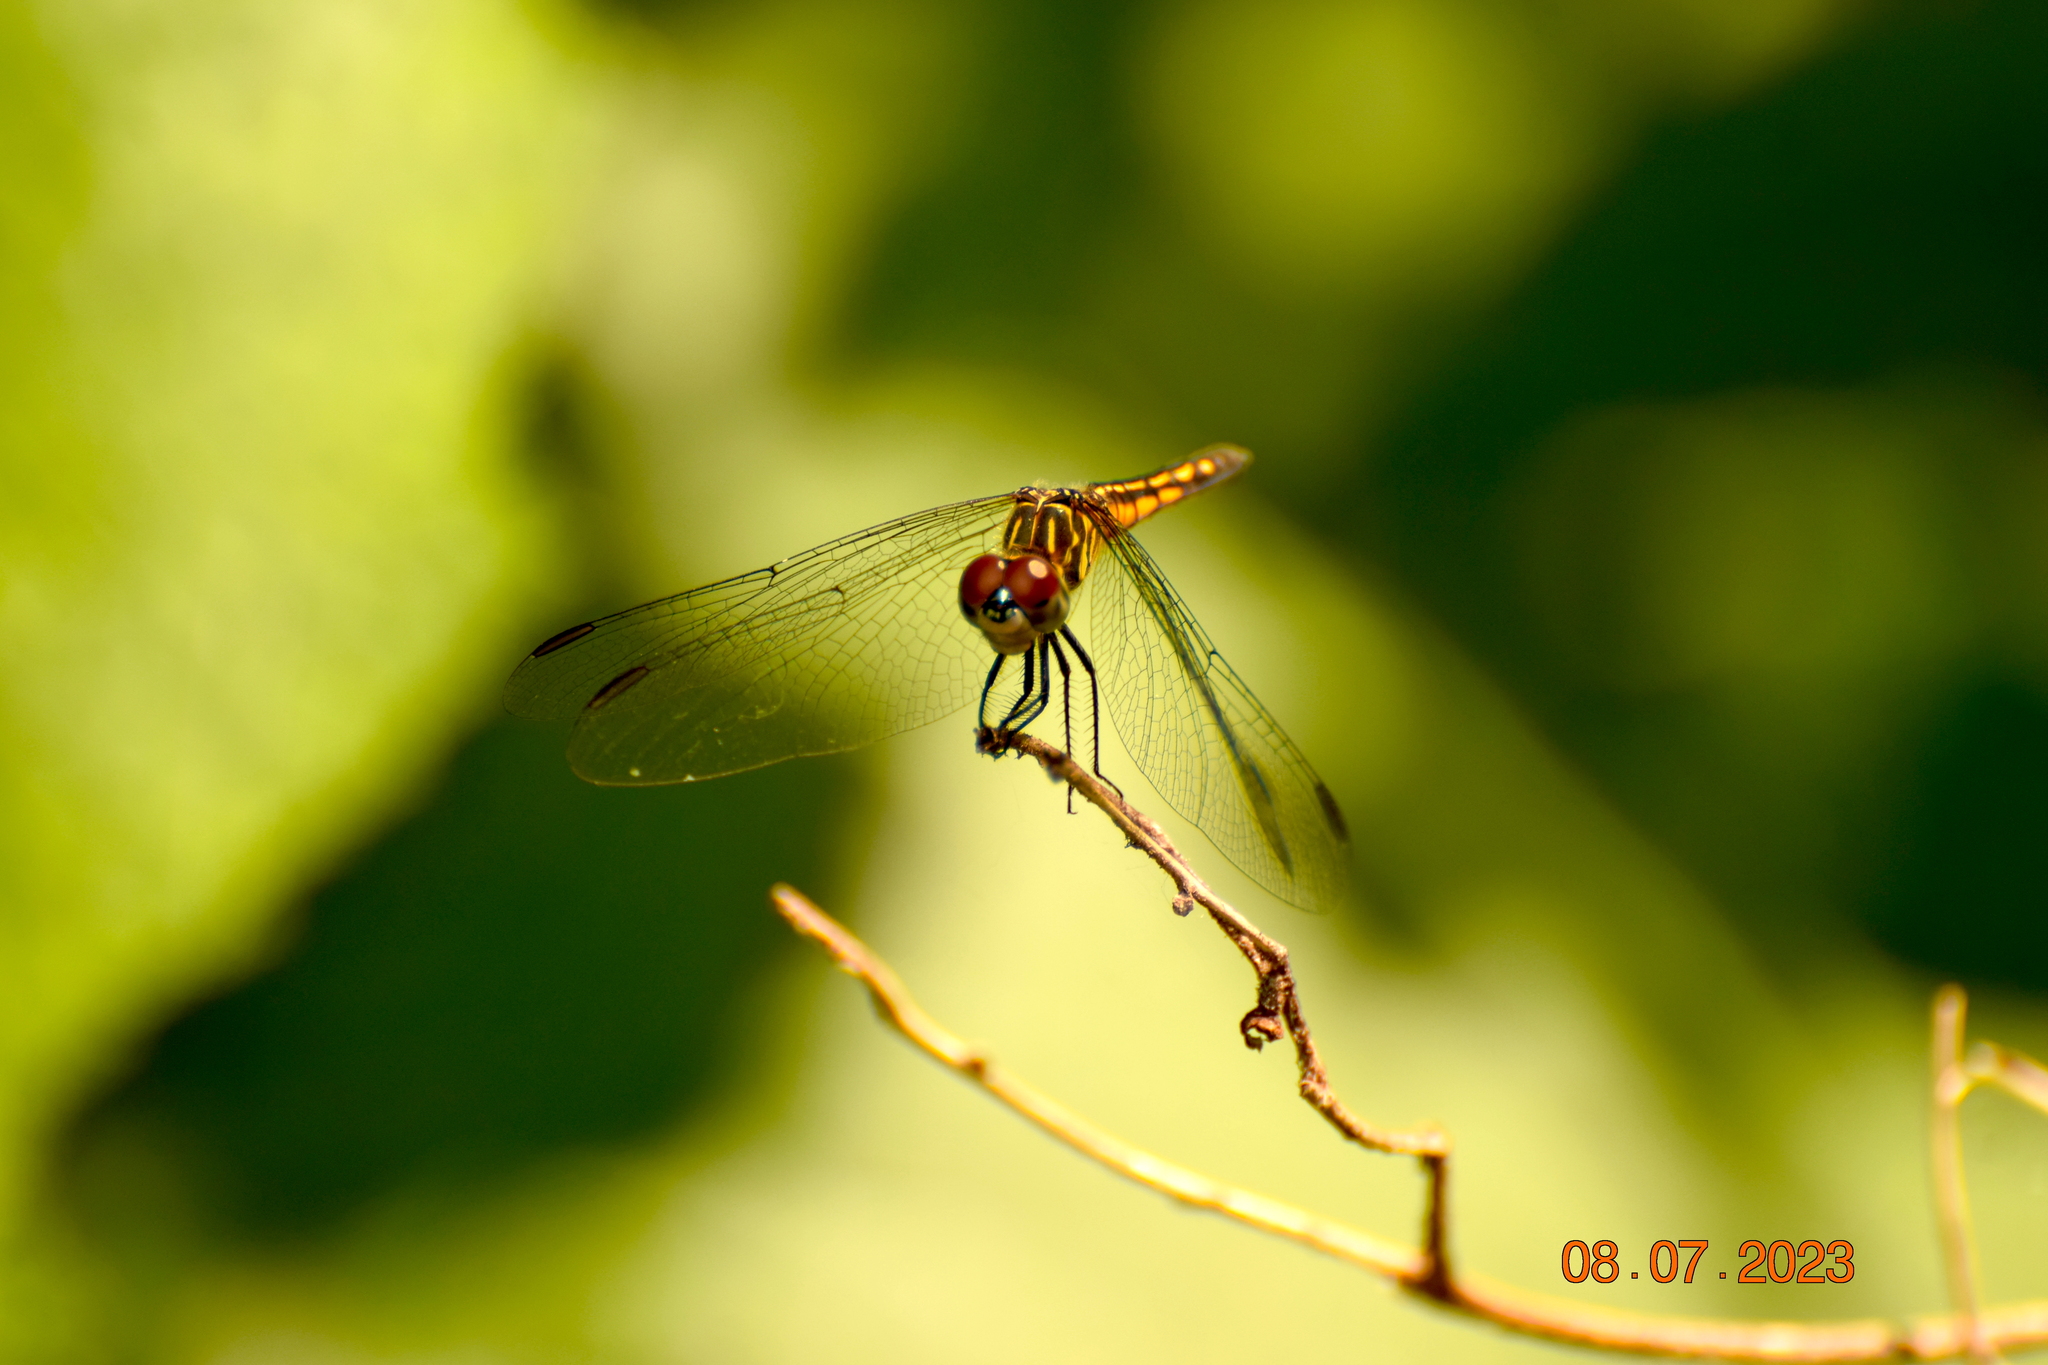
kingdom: Animalia
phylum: Arthropoda
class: Insecta
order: Odonata
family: Libellulidae
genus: Pachydiplax
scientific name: Pachydiplax longipennis
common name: Blue dasher
